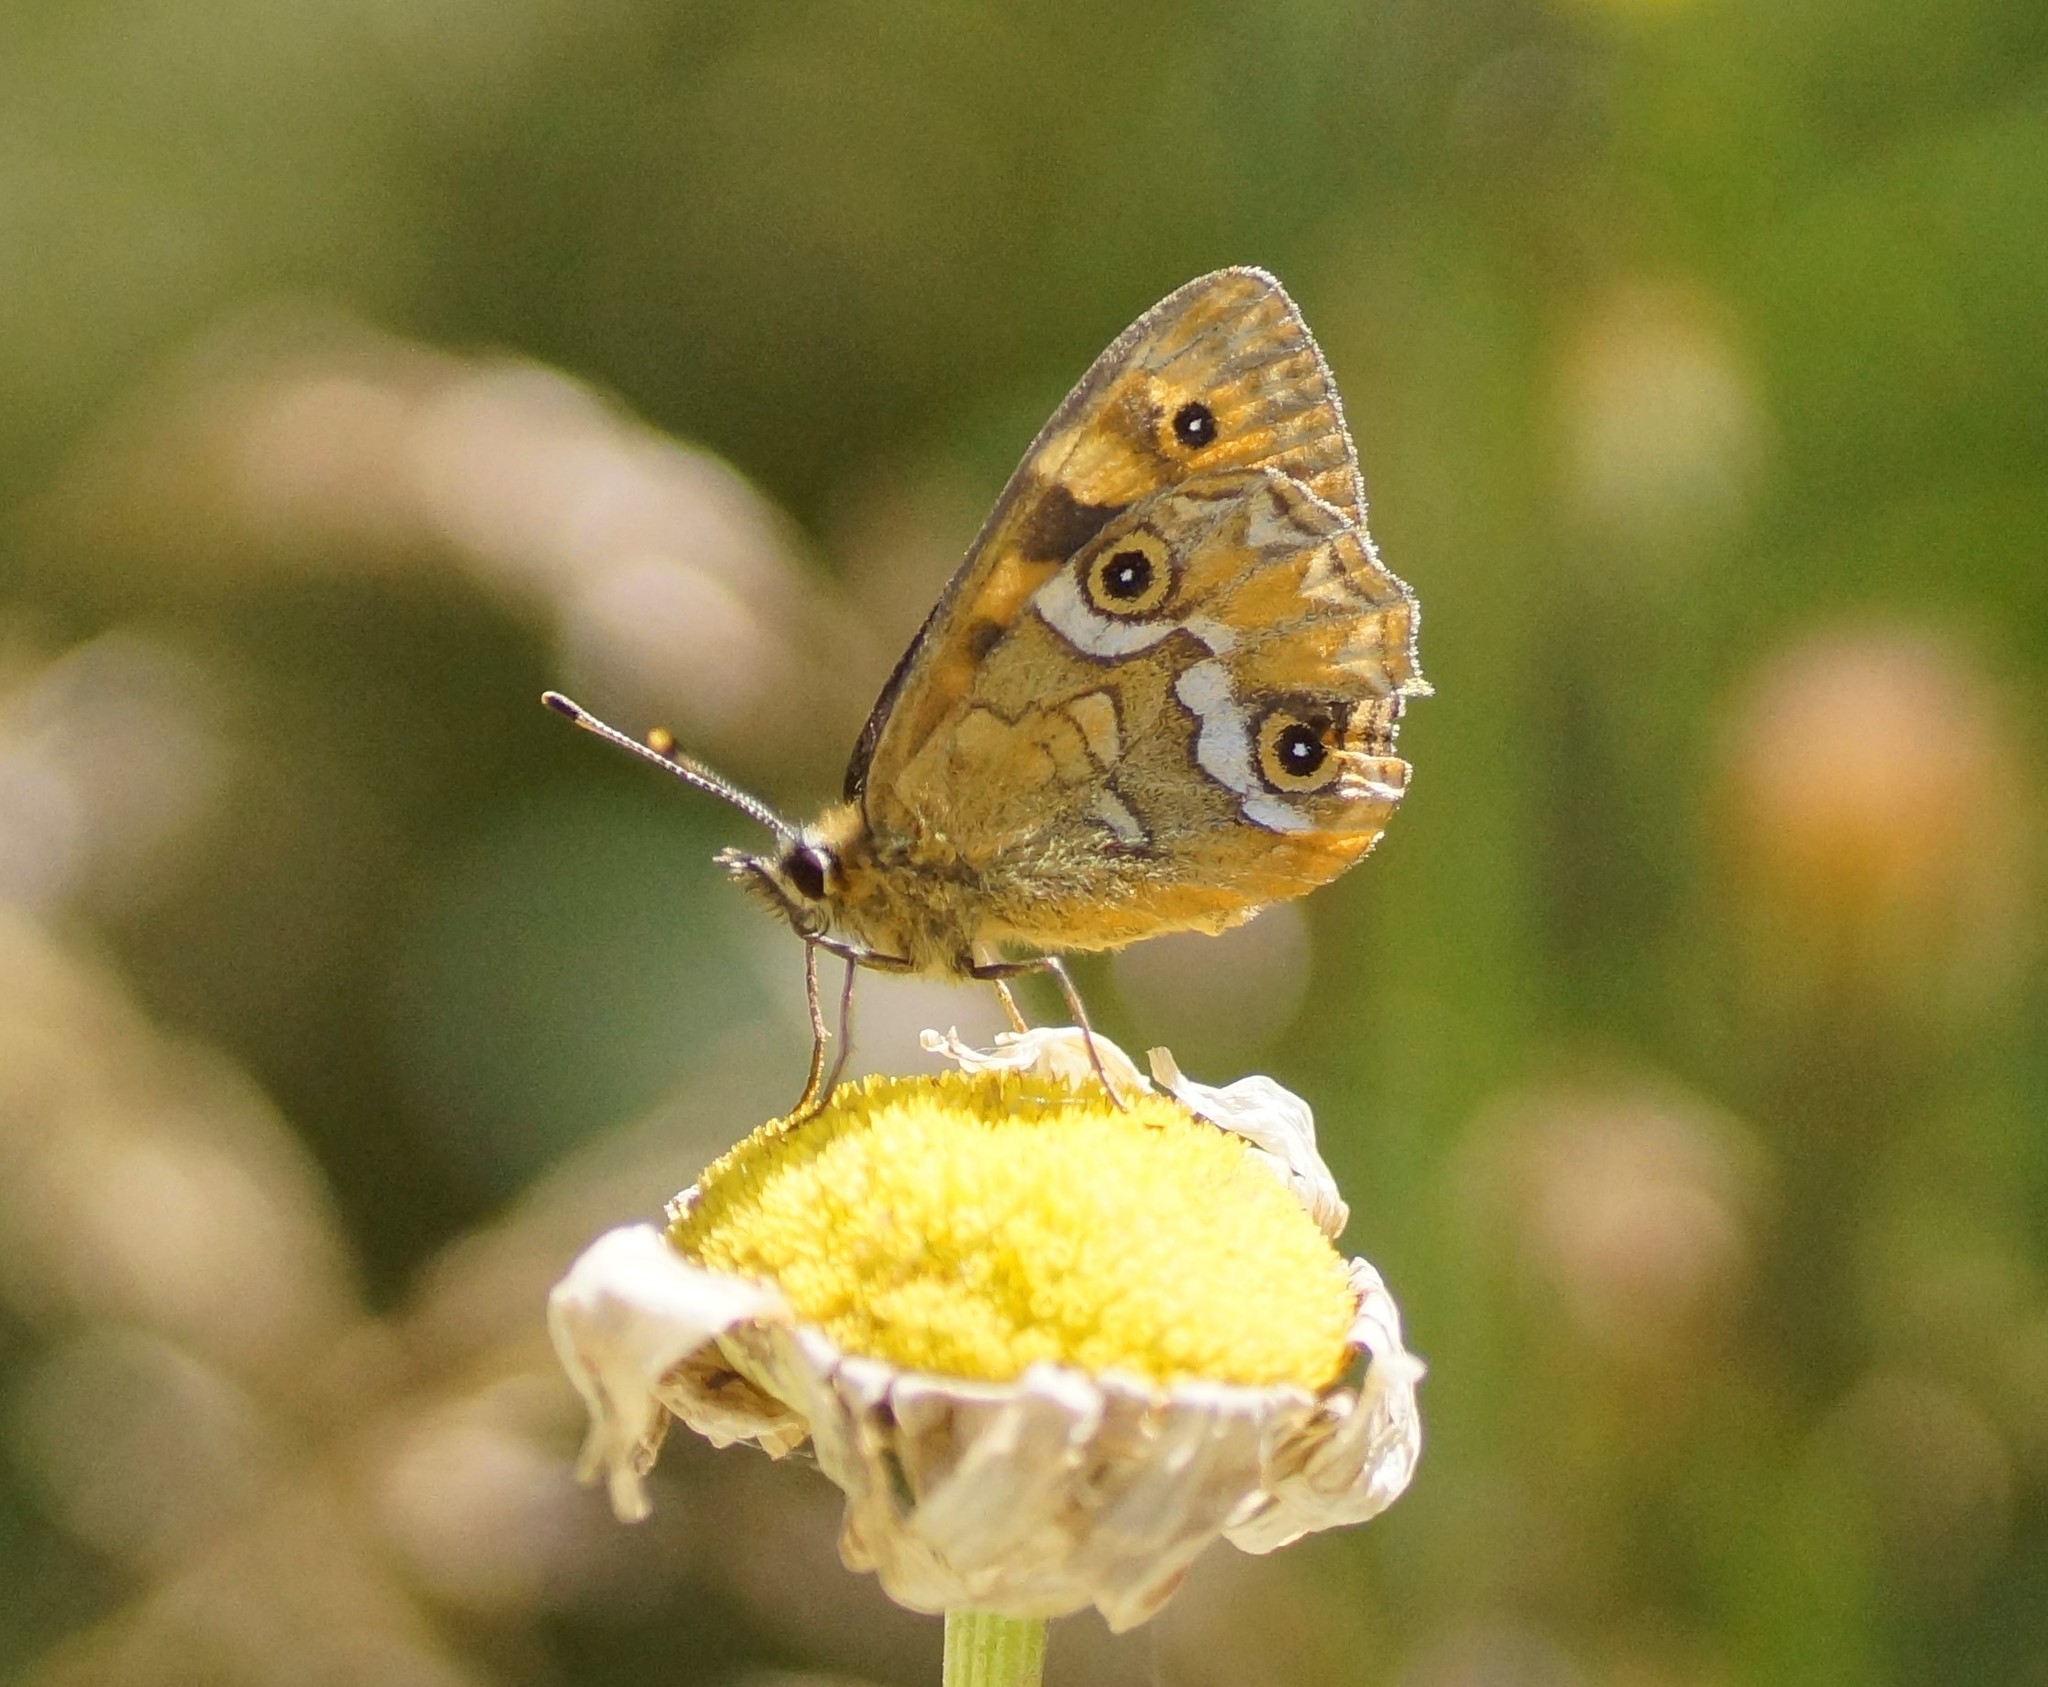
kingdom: Animalia
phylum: Arthropoda
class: Insecta
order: Lepidoptera
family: Nymphalidae
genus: Oreixenica
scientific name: Oreixenica correae
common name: Correa brown
